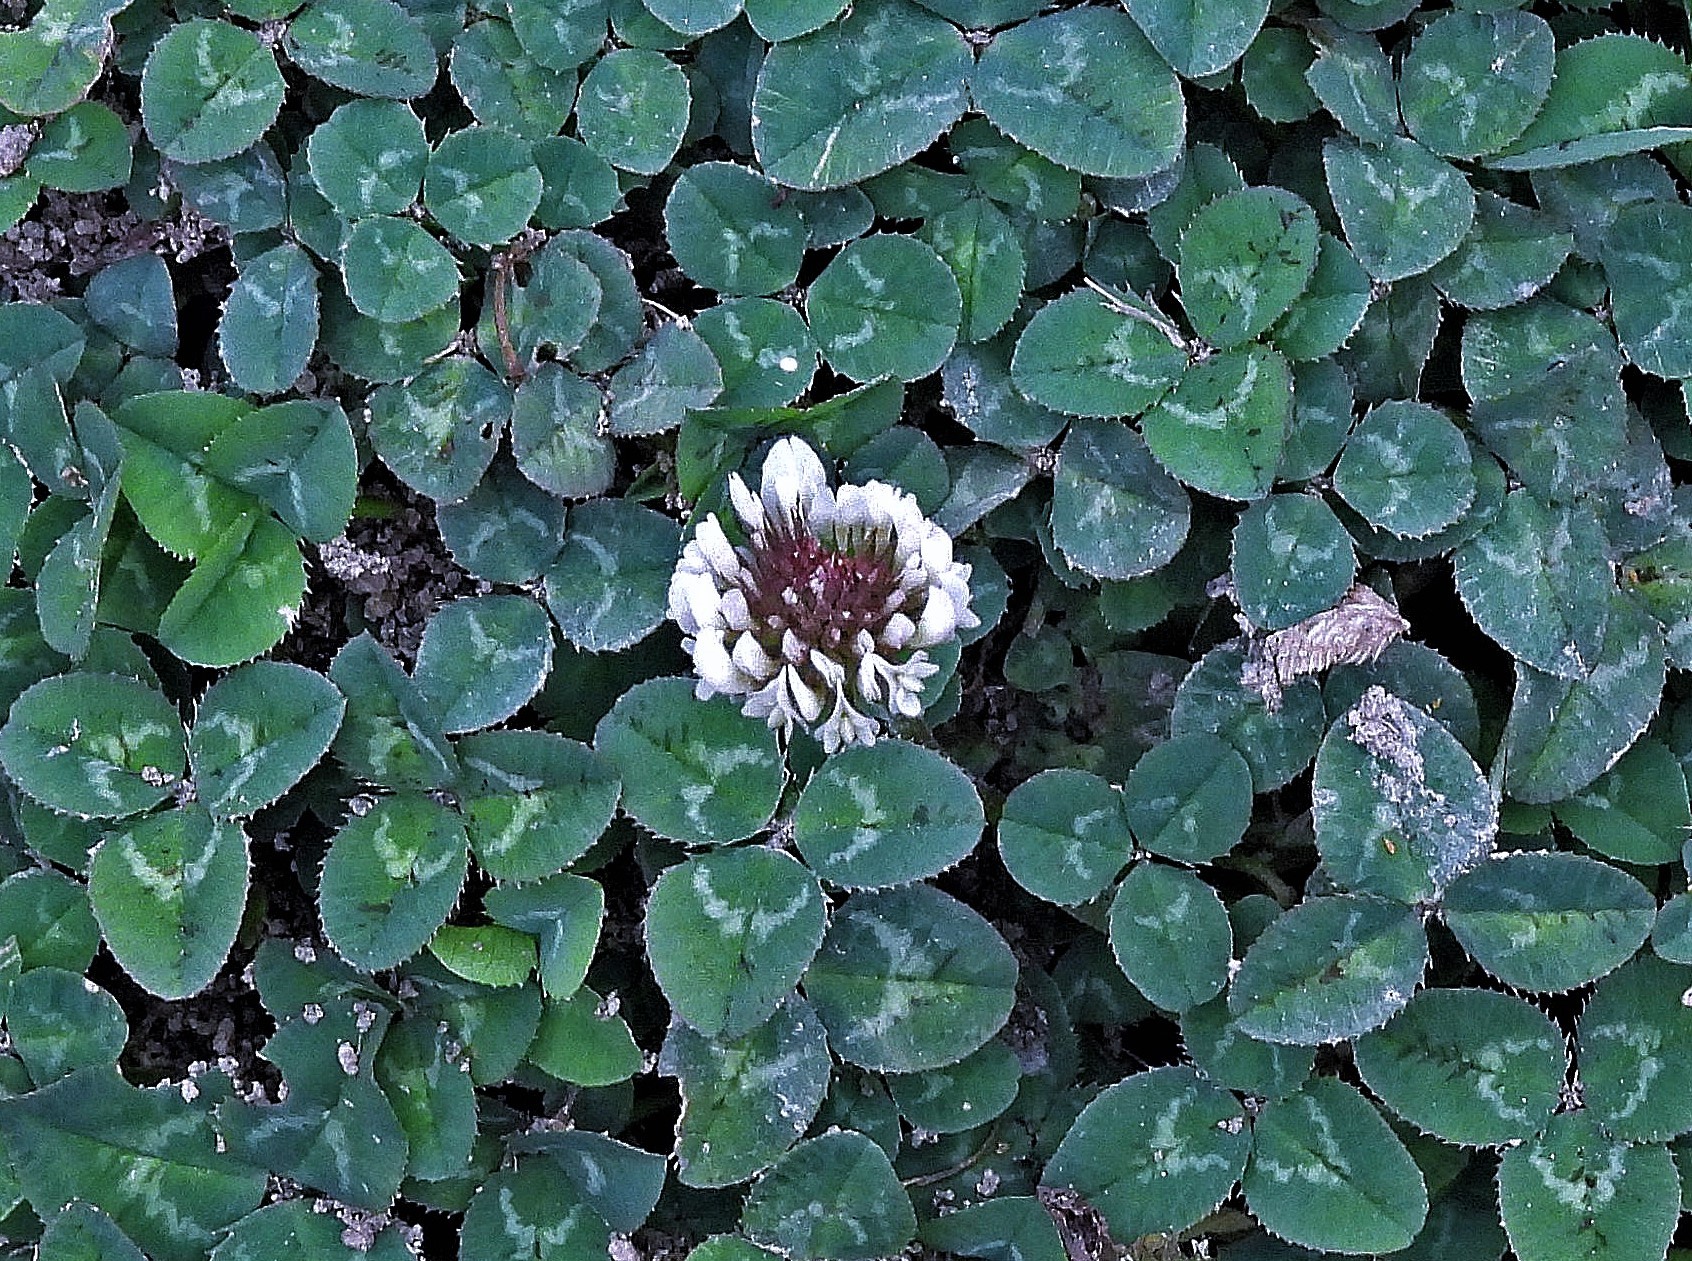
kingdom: Plantae
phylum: Tracheophyta
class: Magnoliopsida
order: Fabales
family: Fabaceae
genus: Trifolium
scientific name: Trifolium repens
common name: White clover
